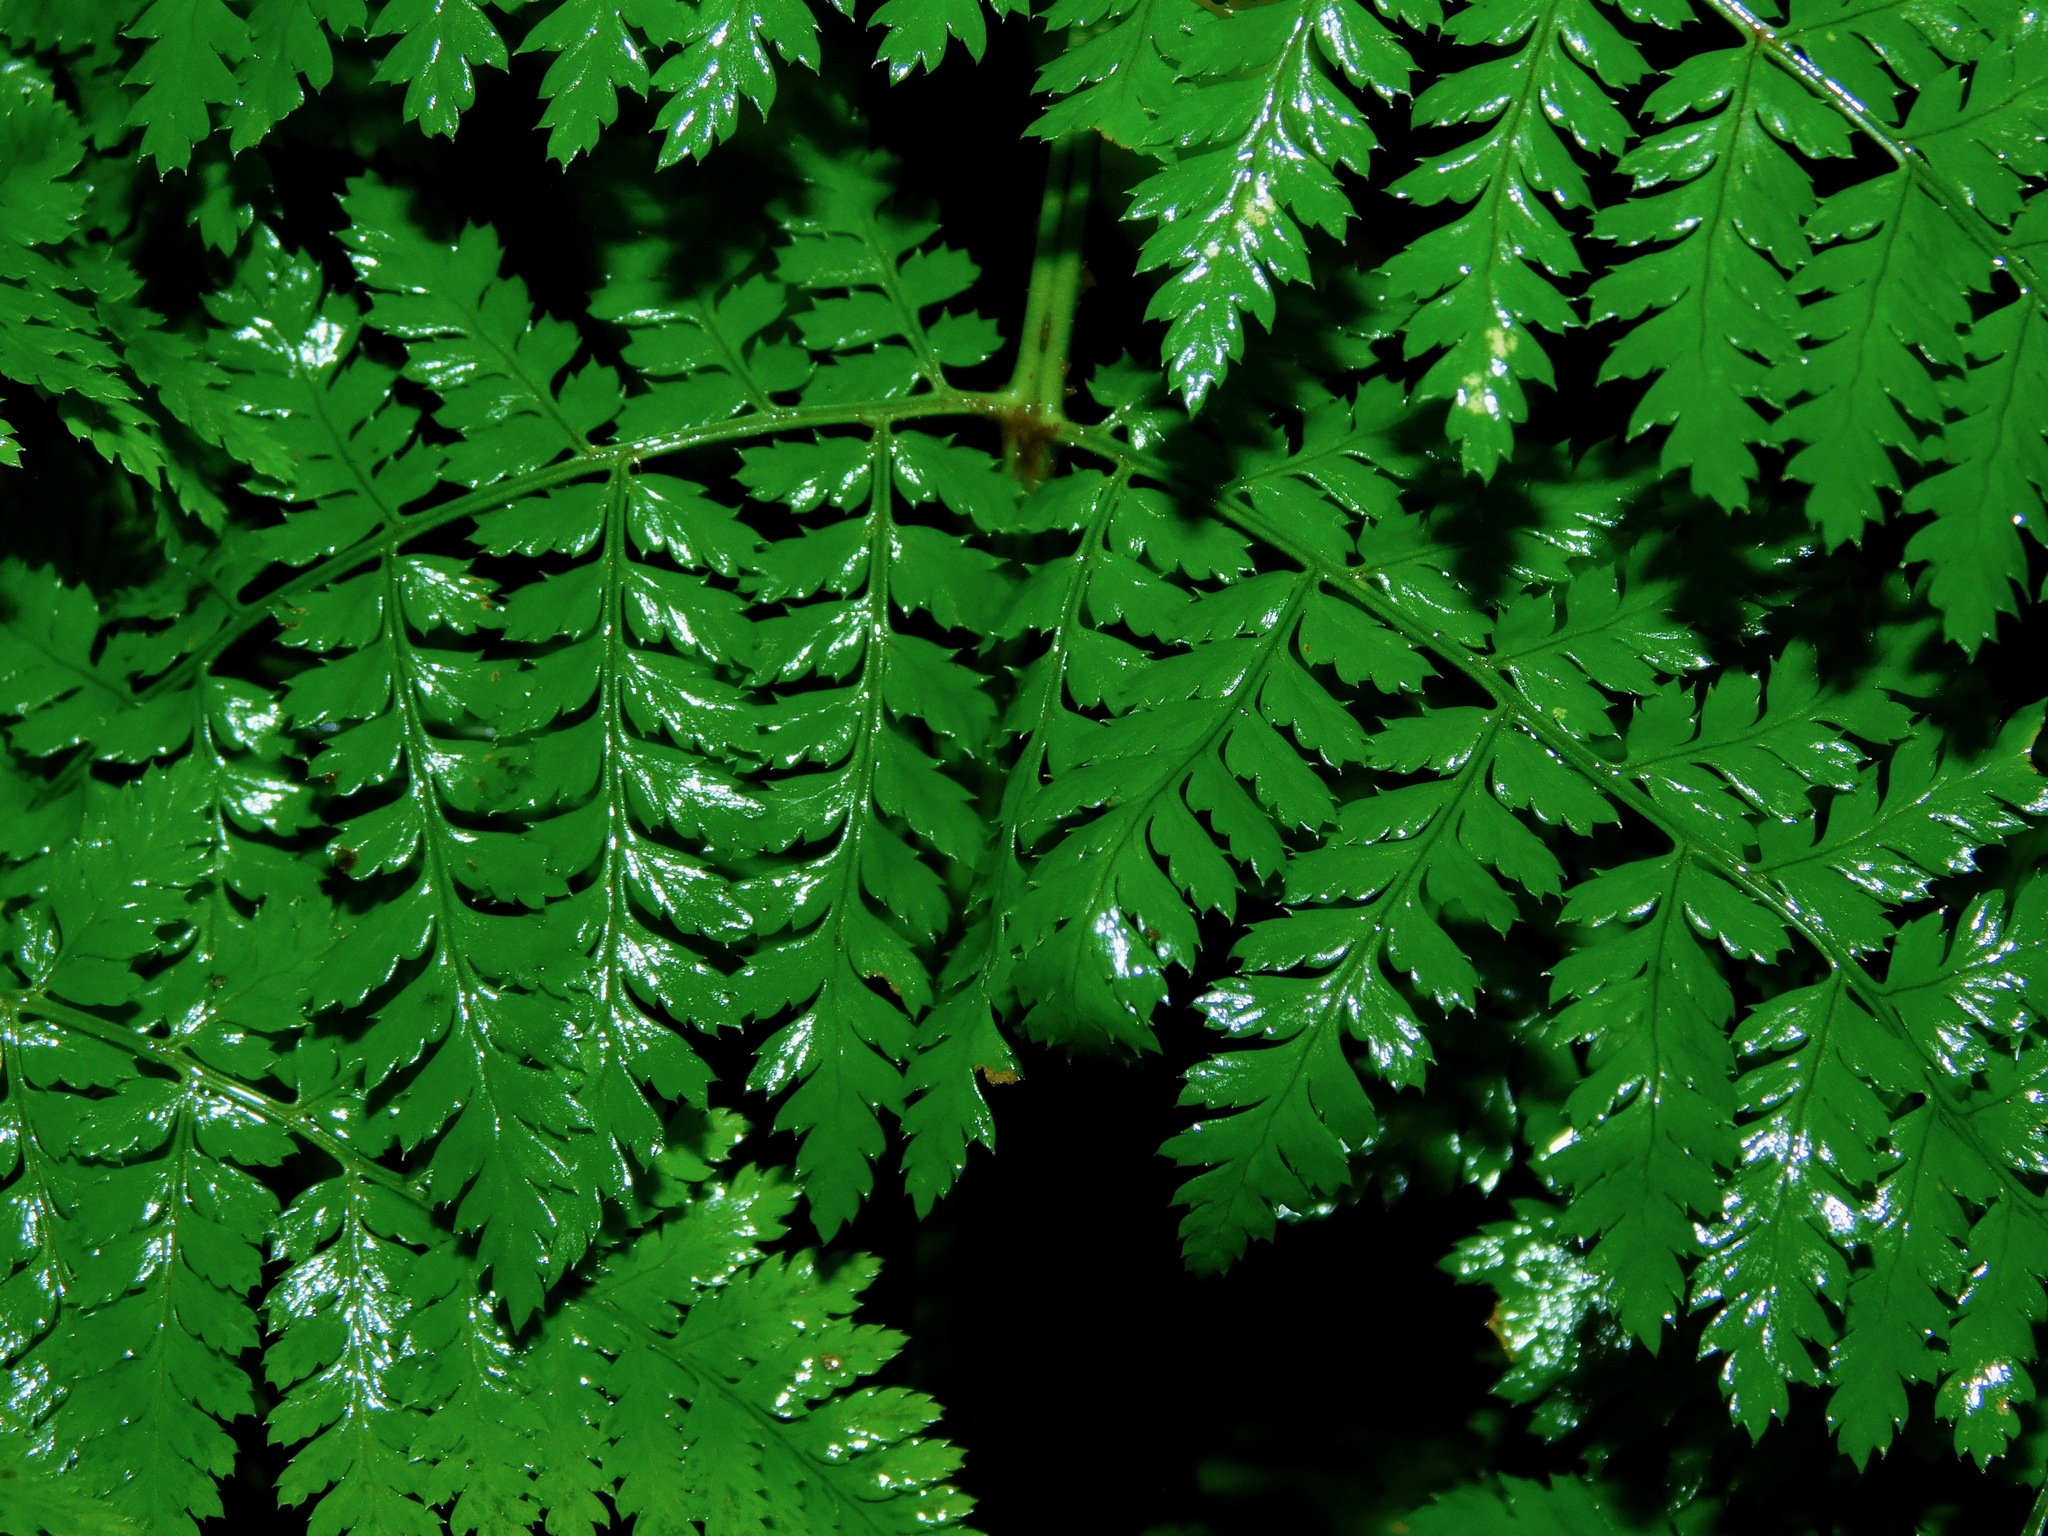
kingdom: Plantae
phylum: Tracheophyta
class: Polypodiopsida
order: Polypodiales
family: Dryopteridaceae
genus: Dryopteris
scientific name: Dryopteris intermedia
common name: Evergreen wood fern
